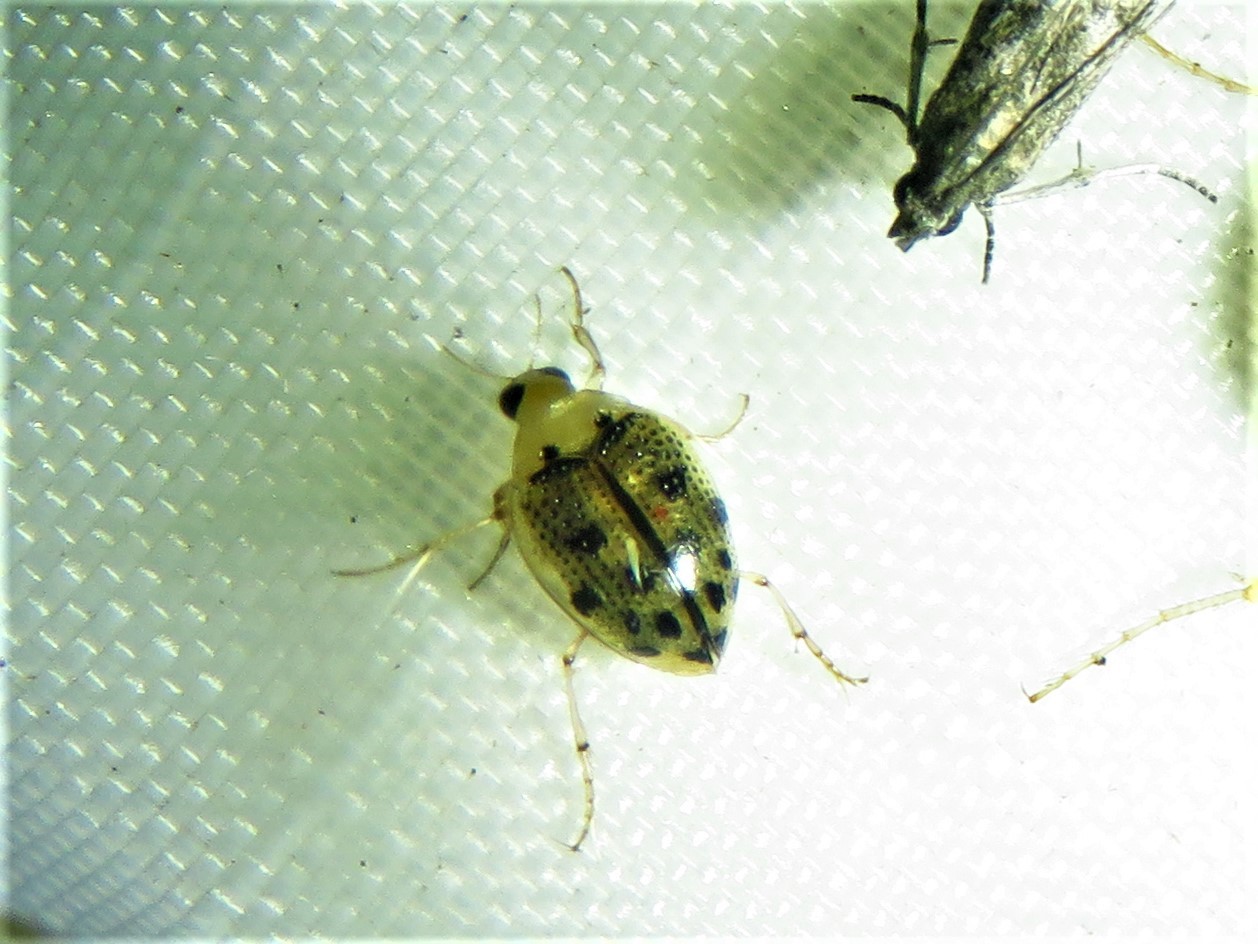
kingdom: Animalia
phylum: Arthropoda
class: Insecta
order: Coleoptera
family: Haliplidae
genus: Peltodytes
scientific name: Peltodytes litoralis
